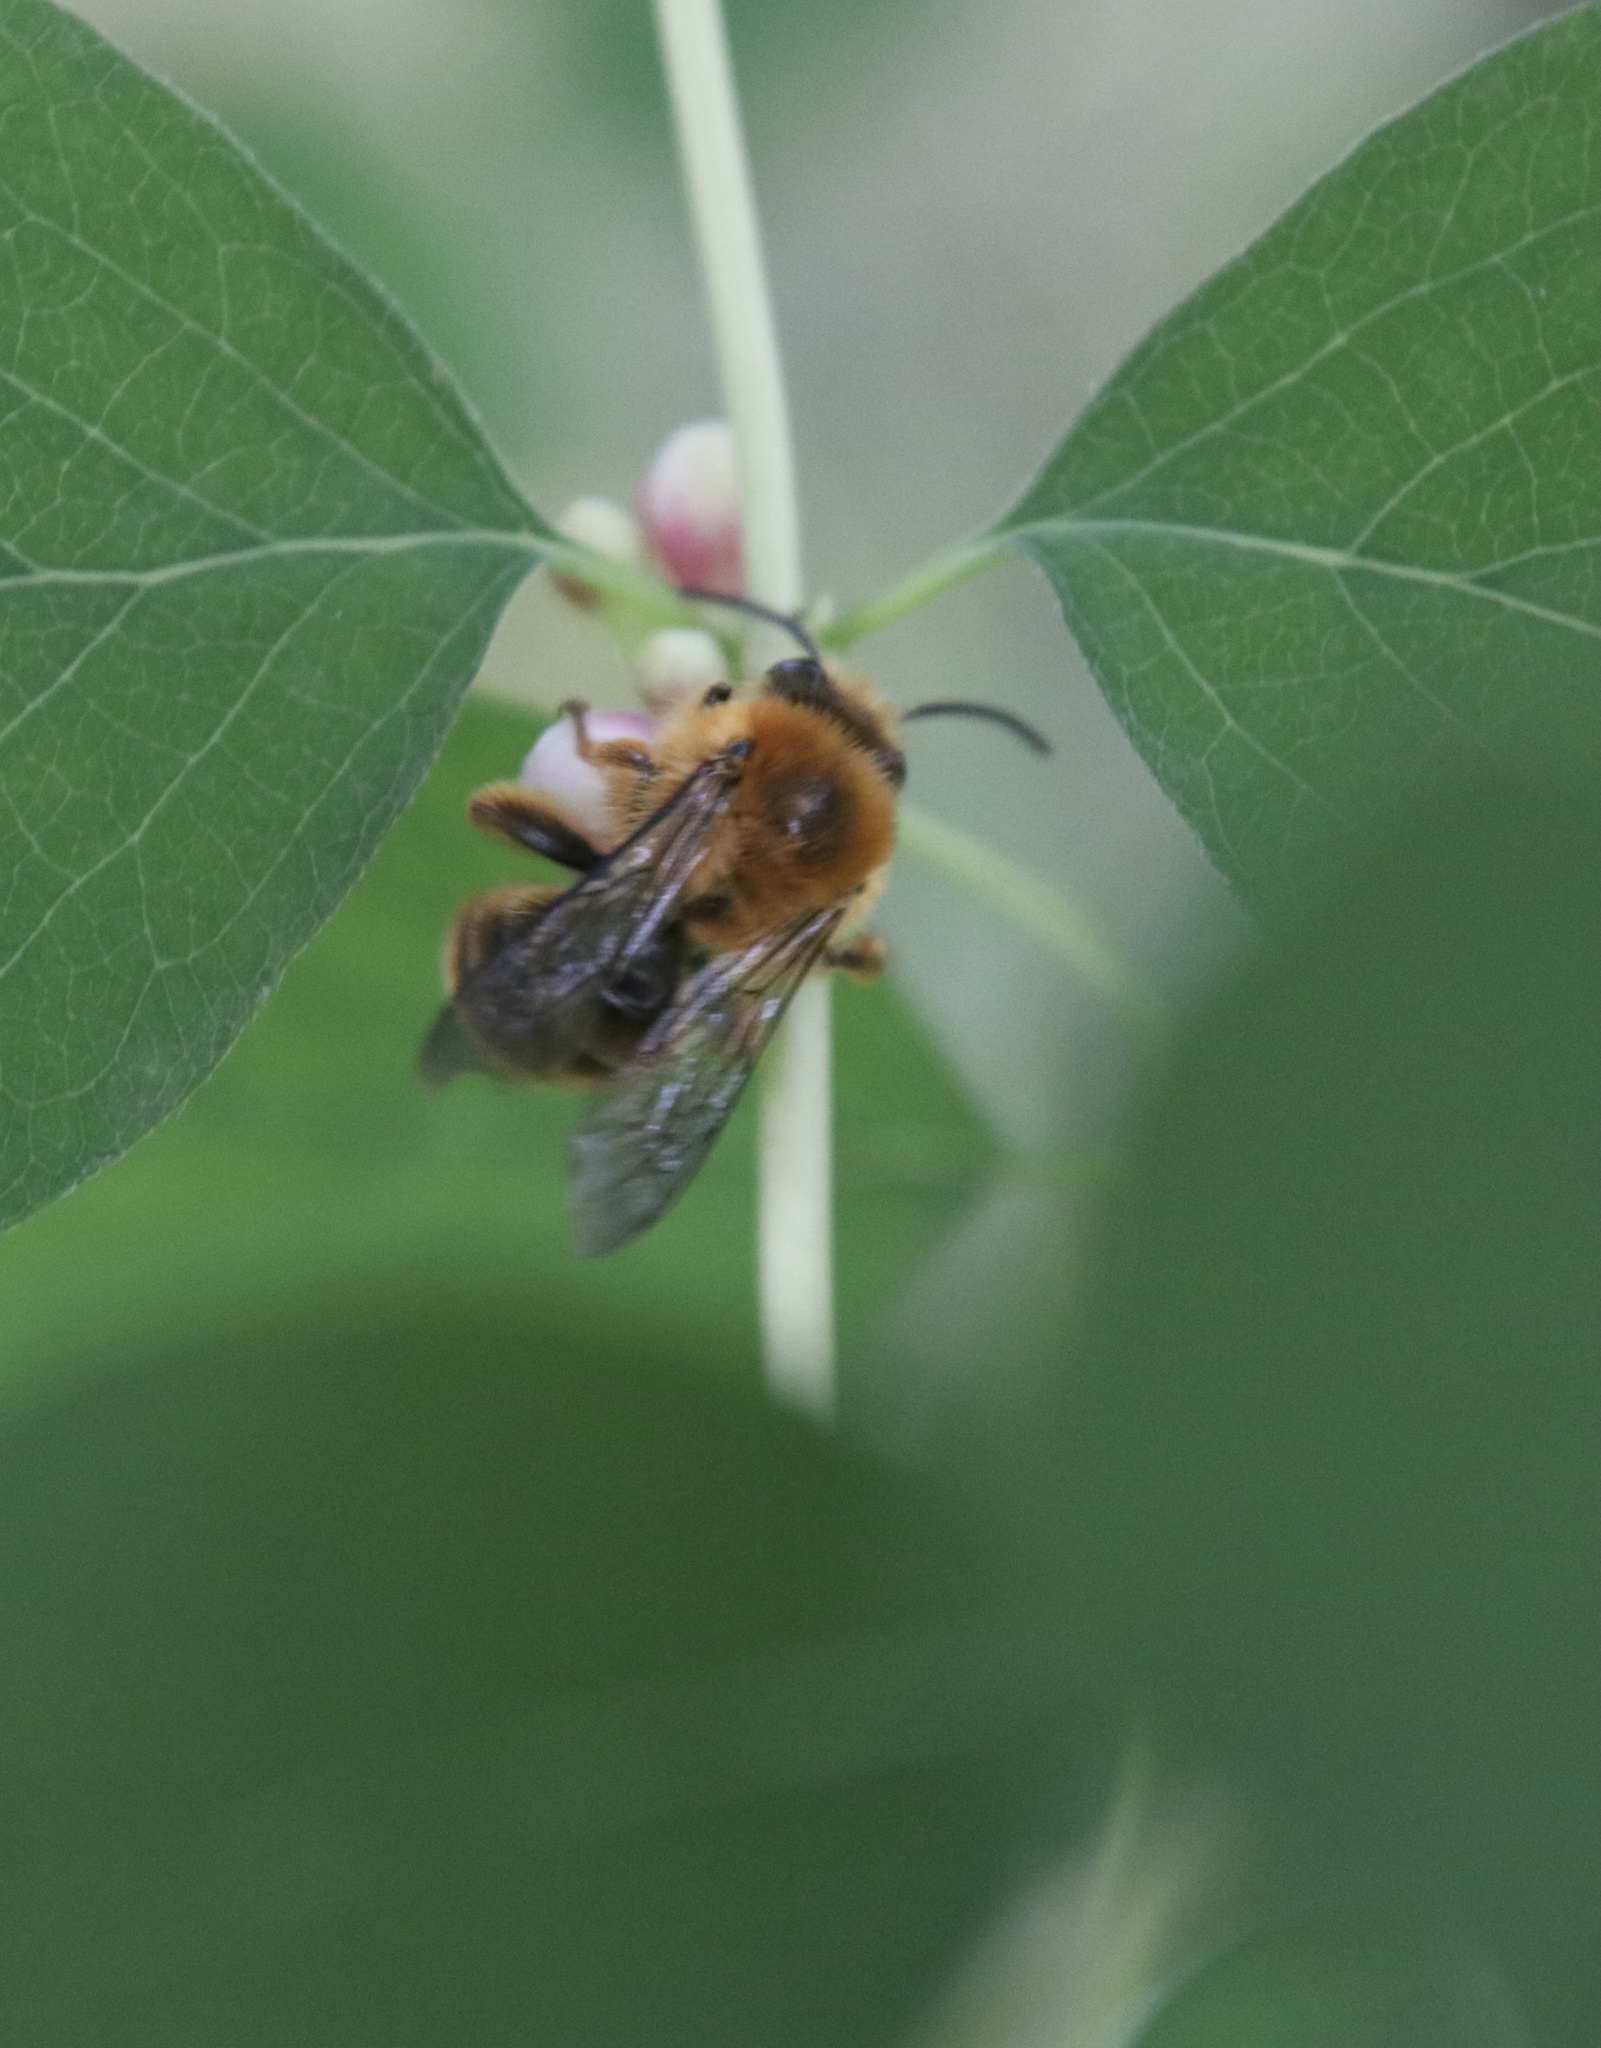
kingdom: Animalia
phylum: Arthropoda
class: Insecta
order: Hymenoptera
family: Colletidae
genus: Cadeguala
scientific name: Cadeguala occidentalis
